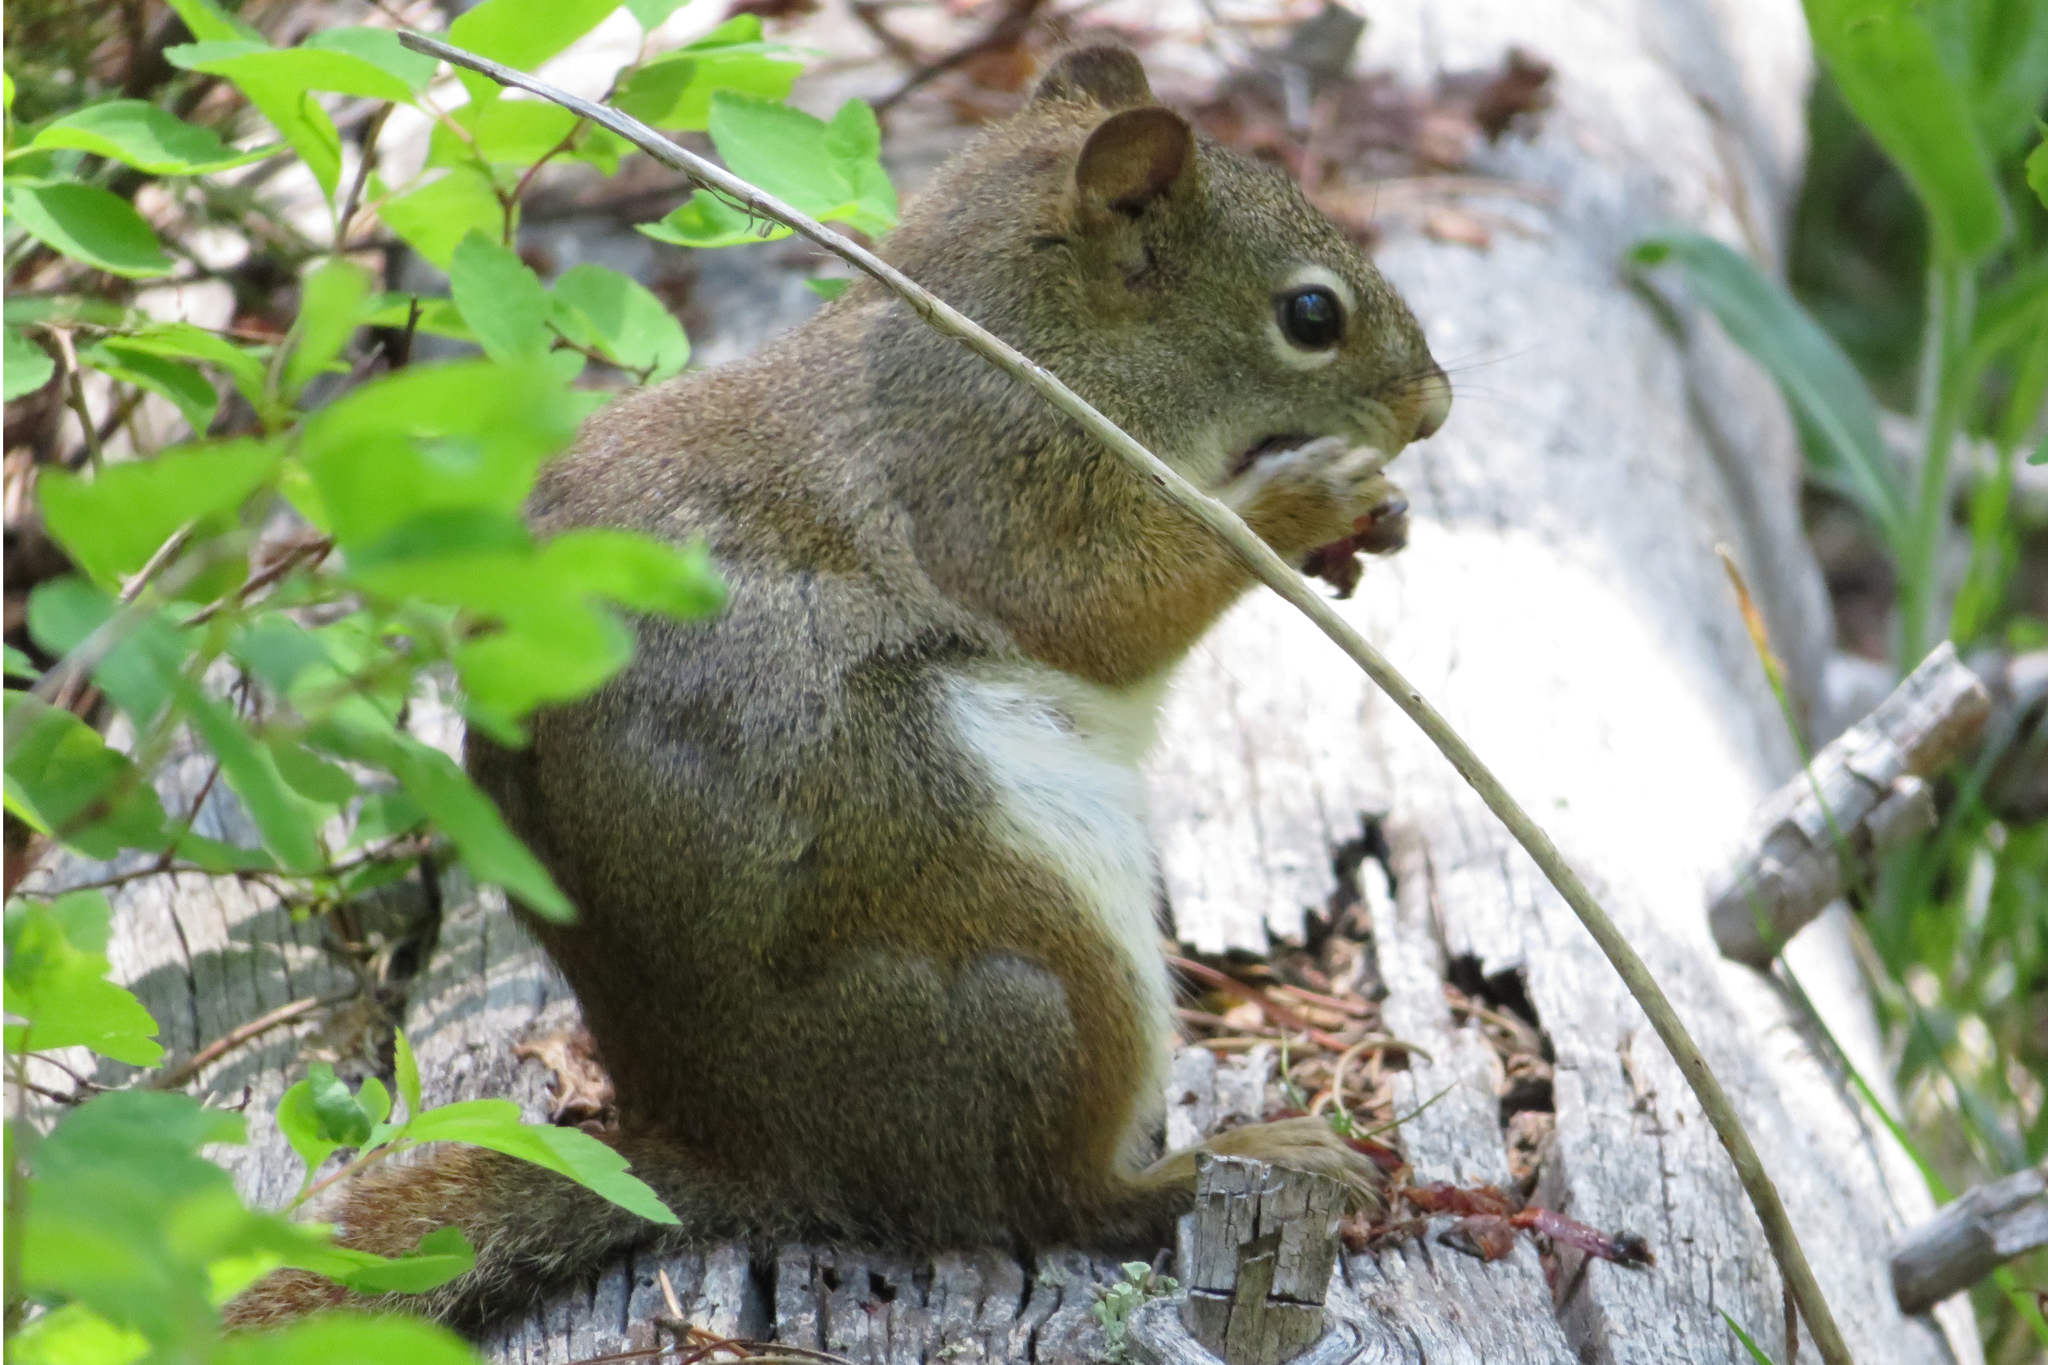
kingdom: Animalia
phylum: Chordata
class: Mammalia
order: Rodentia
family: Sciuridae
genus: Tamiasciurus
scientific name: Tamiasciurus hudsonicus
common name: Red squirrel
